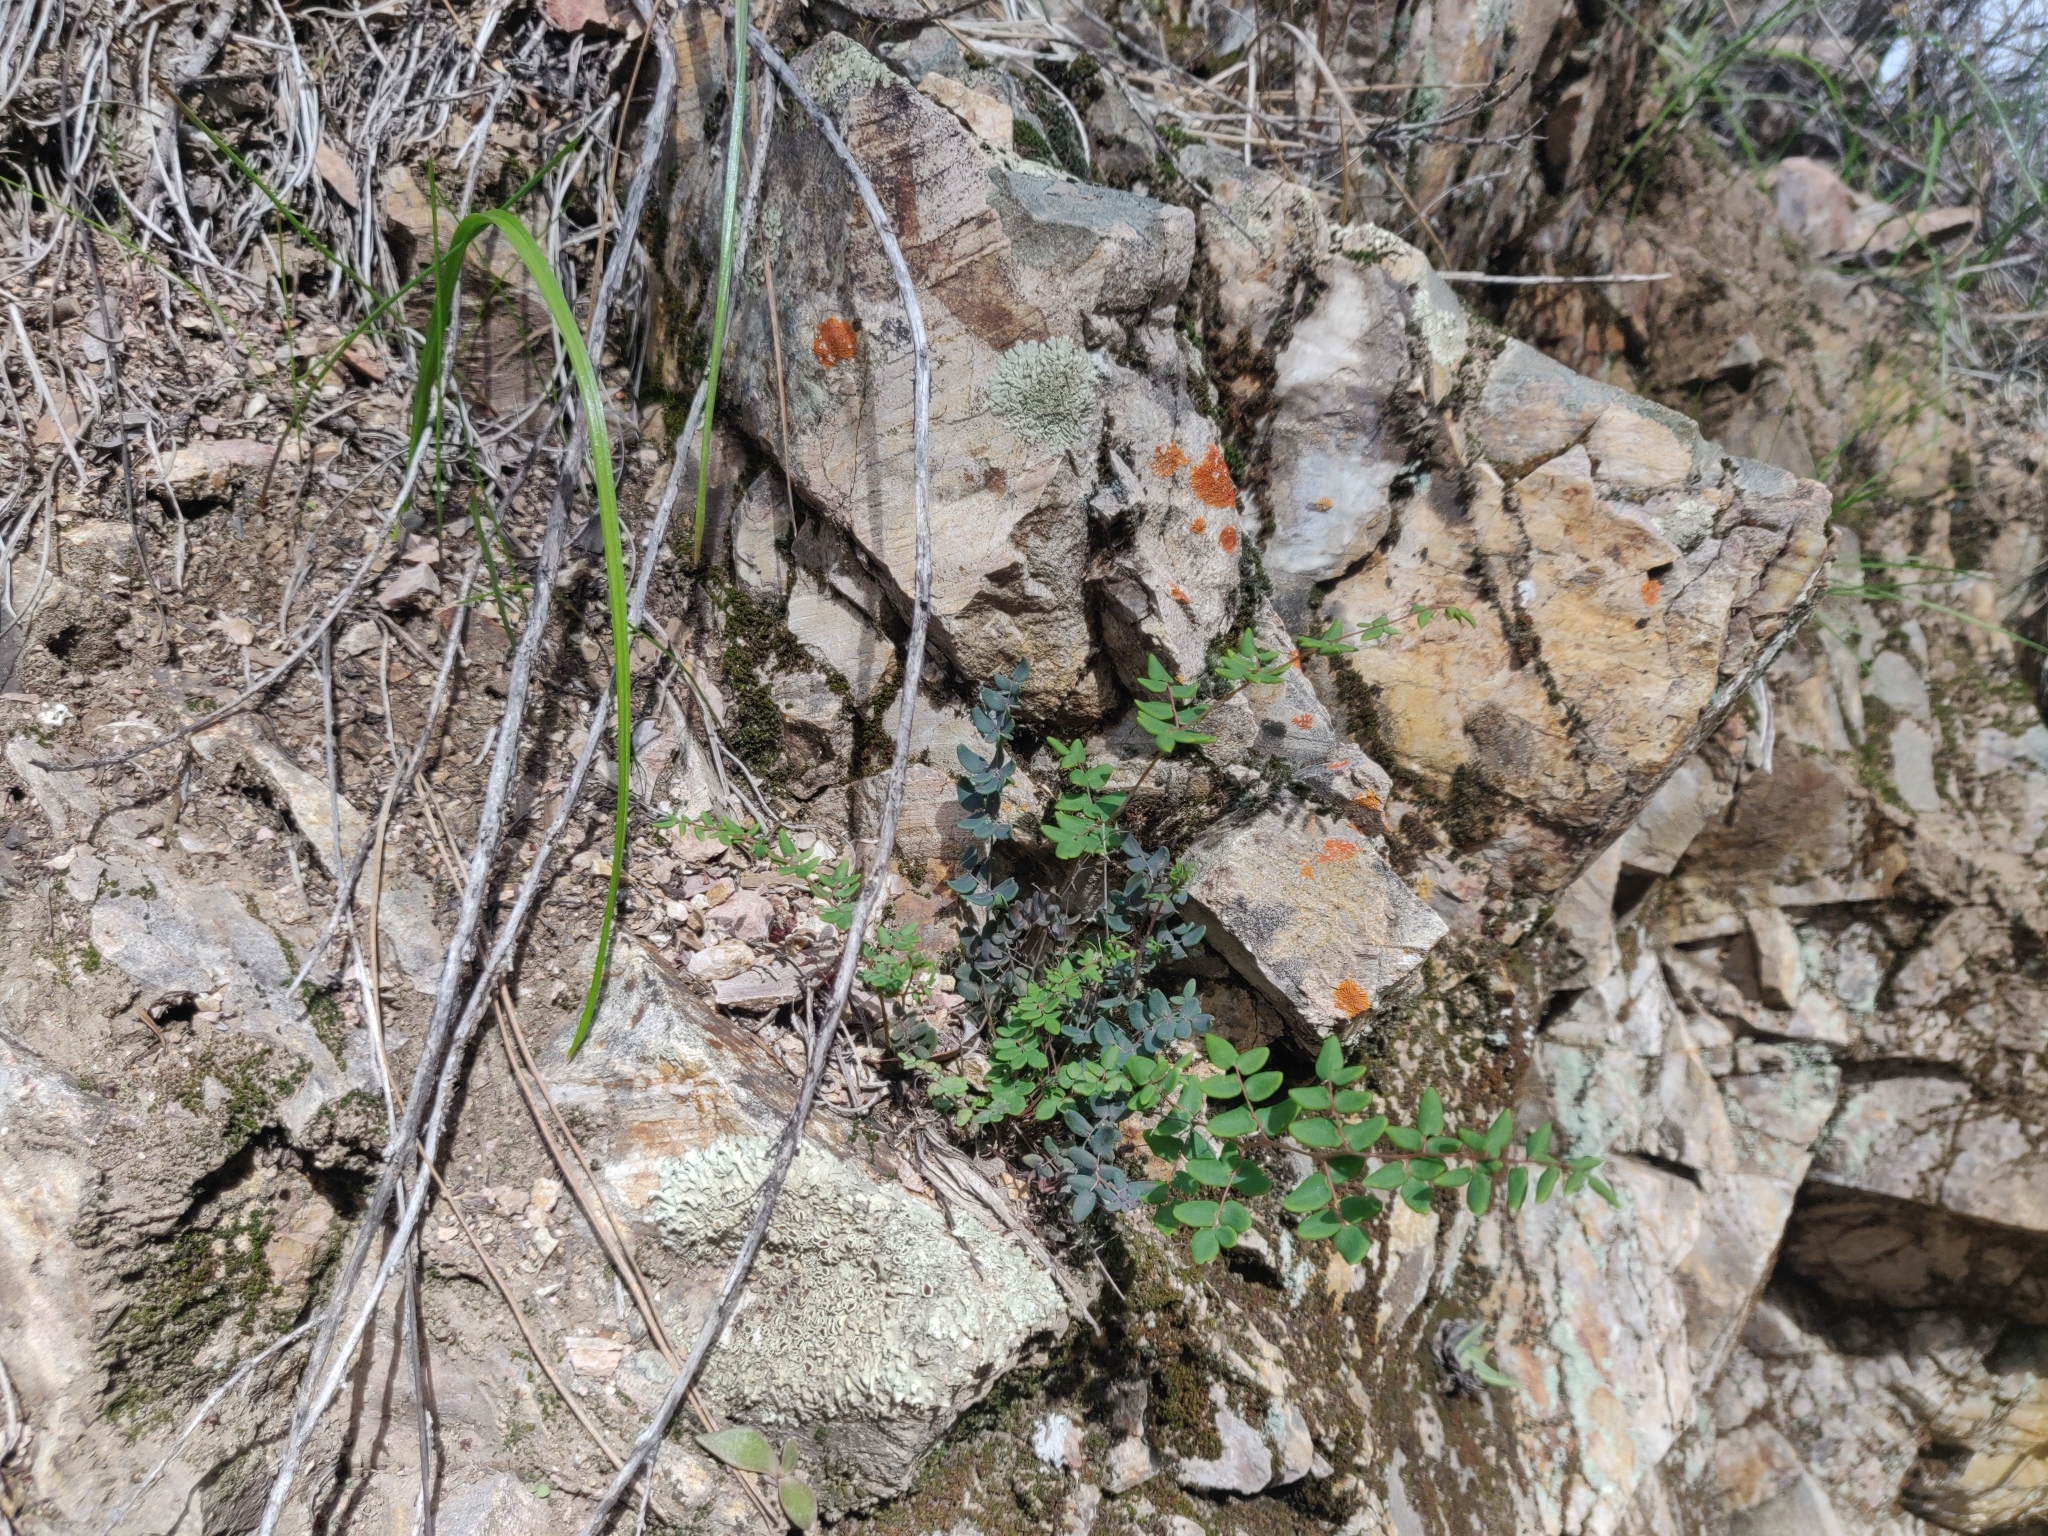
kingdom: Plantae
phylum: Tracheophyta
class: Polypodiopsida
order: Polypodiales
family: Pteridaceae
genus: Pellaea
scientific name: Pellaea andromedifolia
